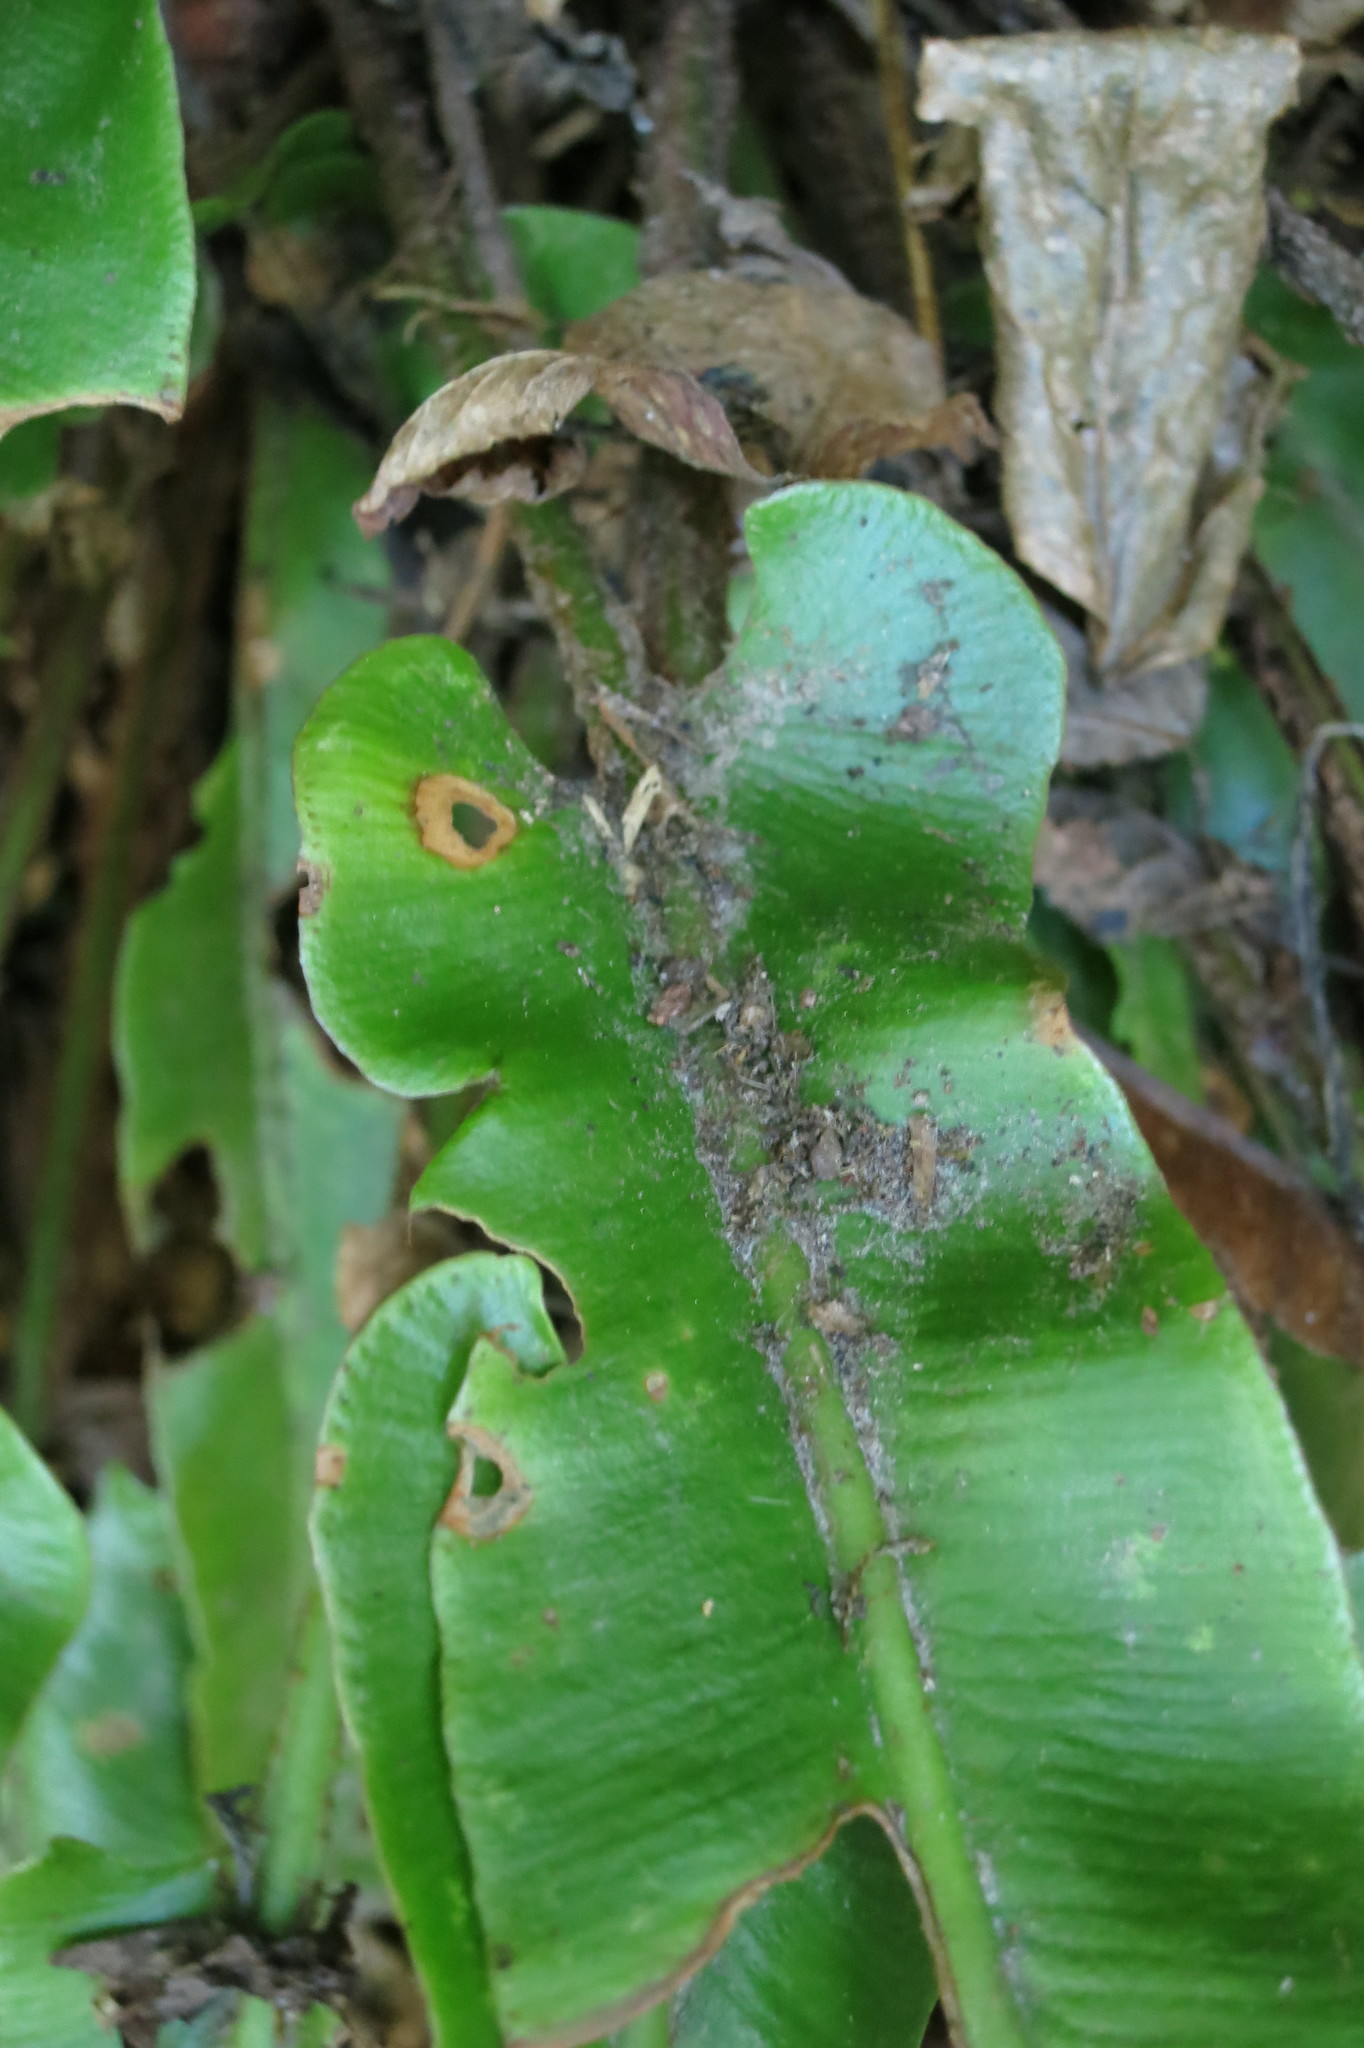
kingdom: Plantae
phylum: Tracheophyta
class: Polypodiopsida
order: Polypodiales
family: Aspleniaceae
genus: Asplenium
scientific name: Asplenium scolopendrium
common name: Hart's-tongue fern
